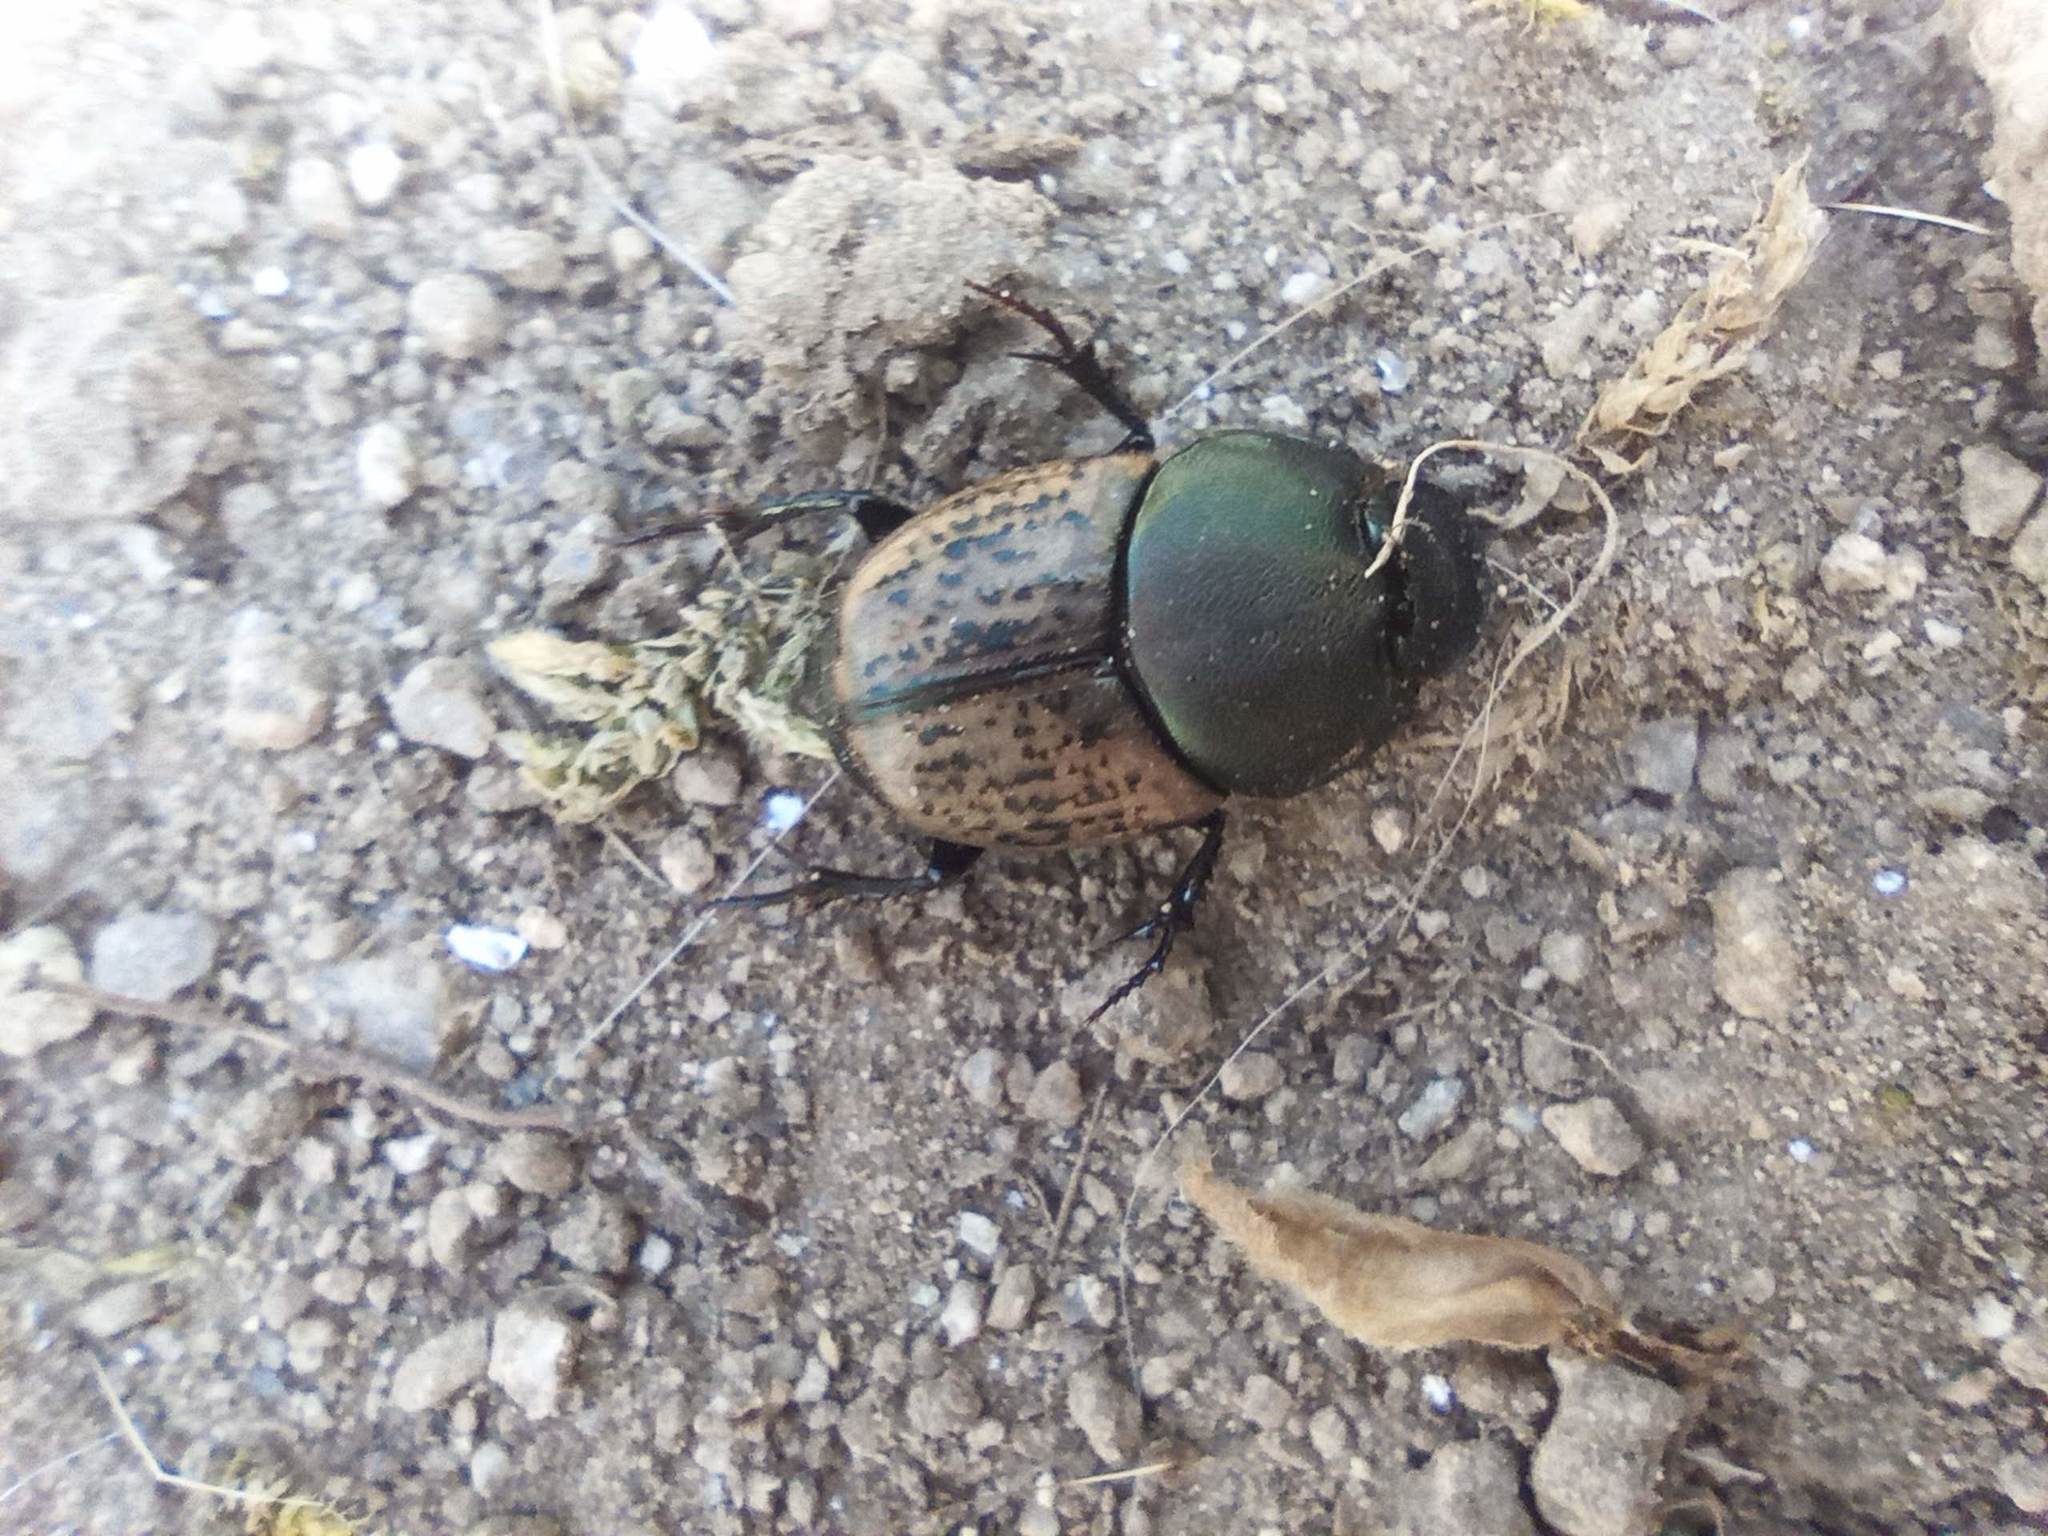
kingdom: Animalia
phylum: Arthropoda
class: Insecta
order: Coleoptera
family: Scarabaeidae
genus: Onthophagus
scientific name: Onthophagus vacca
